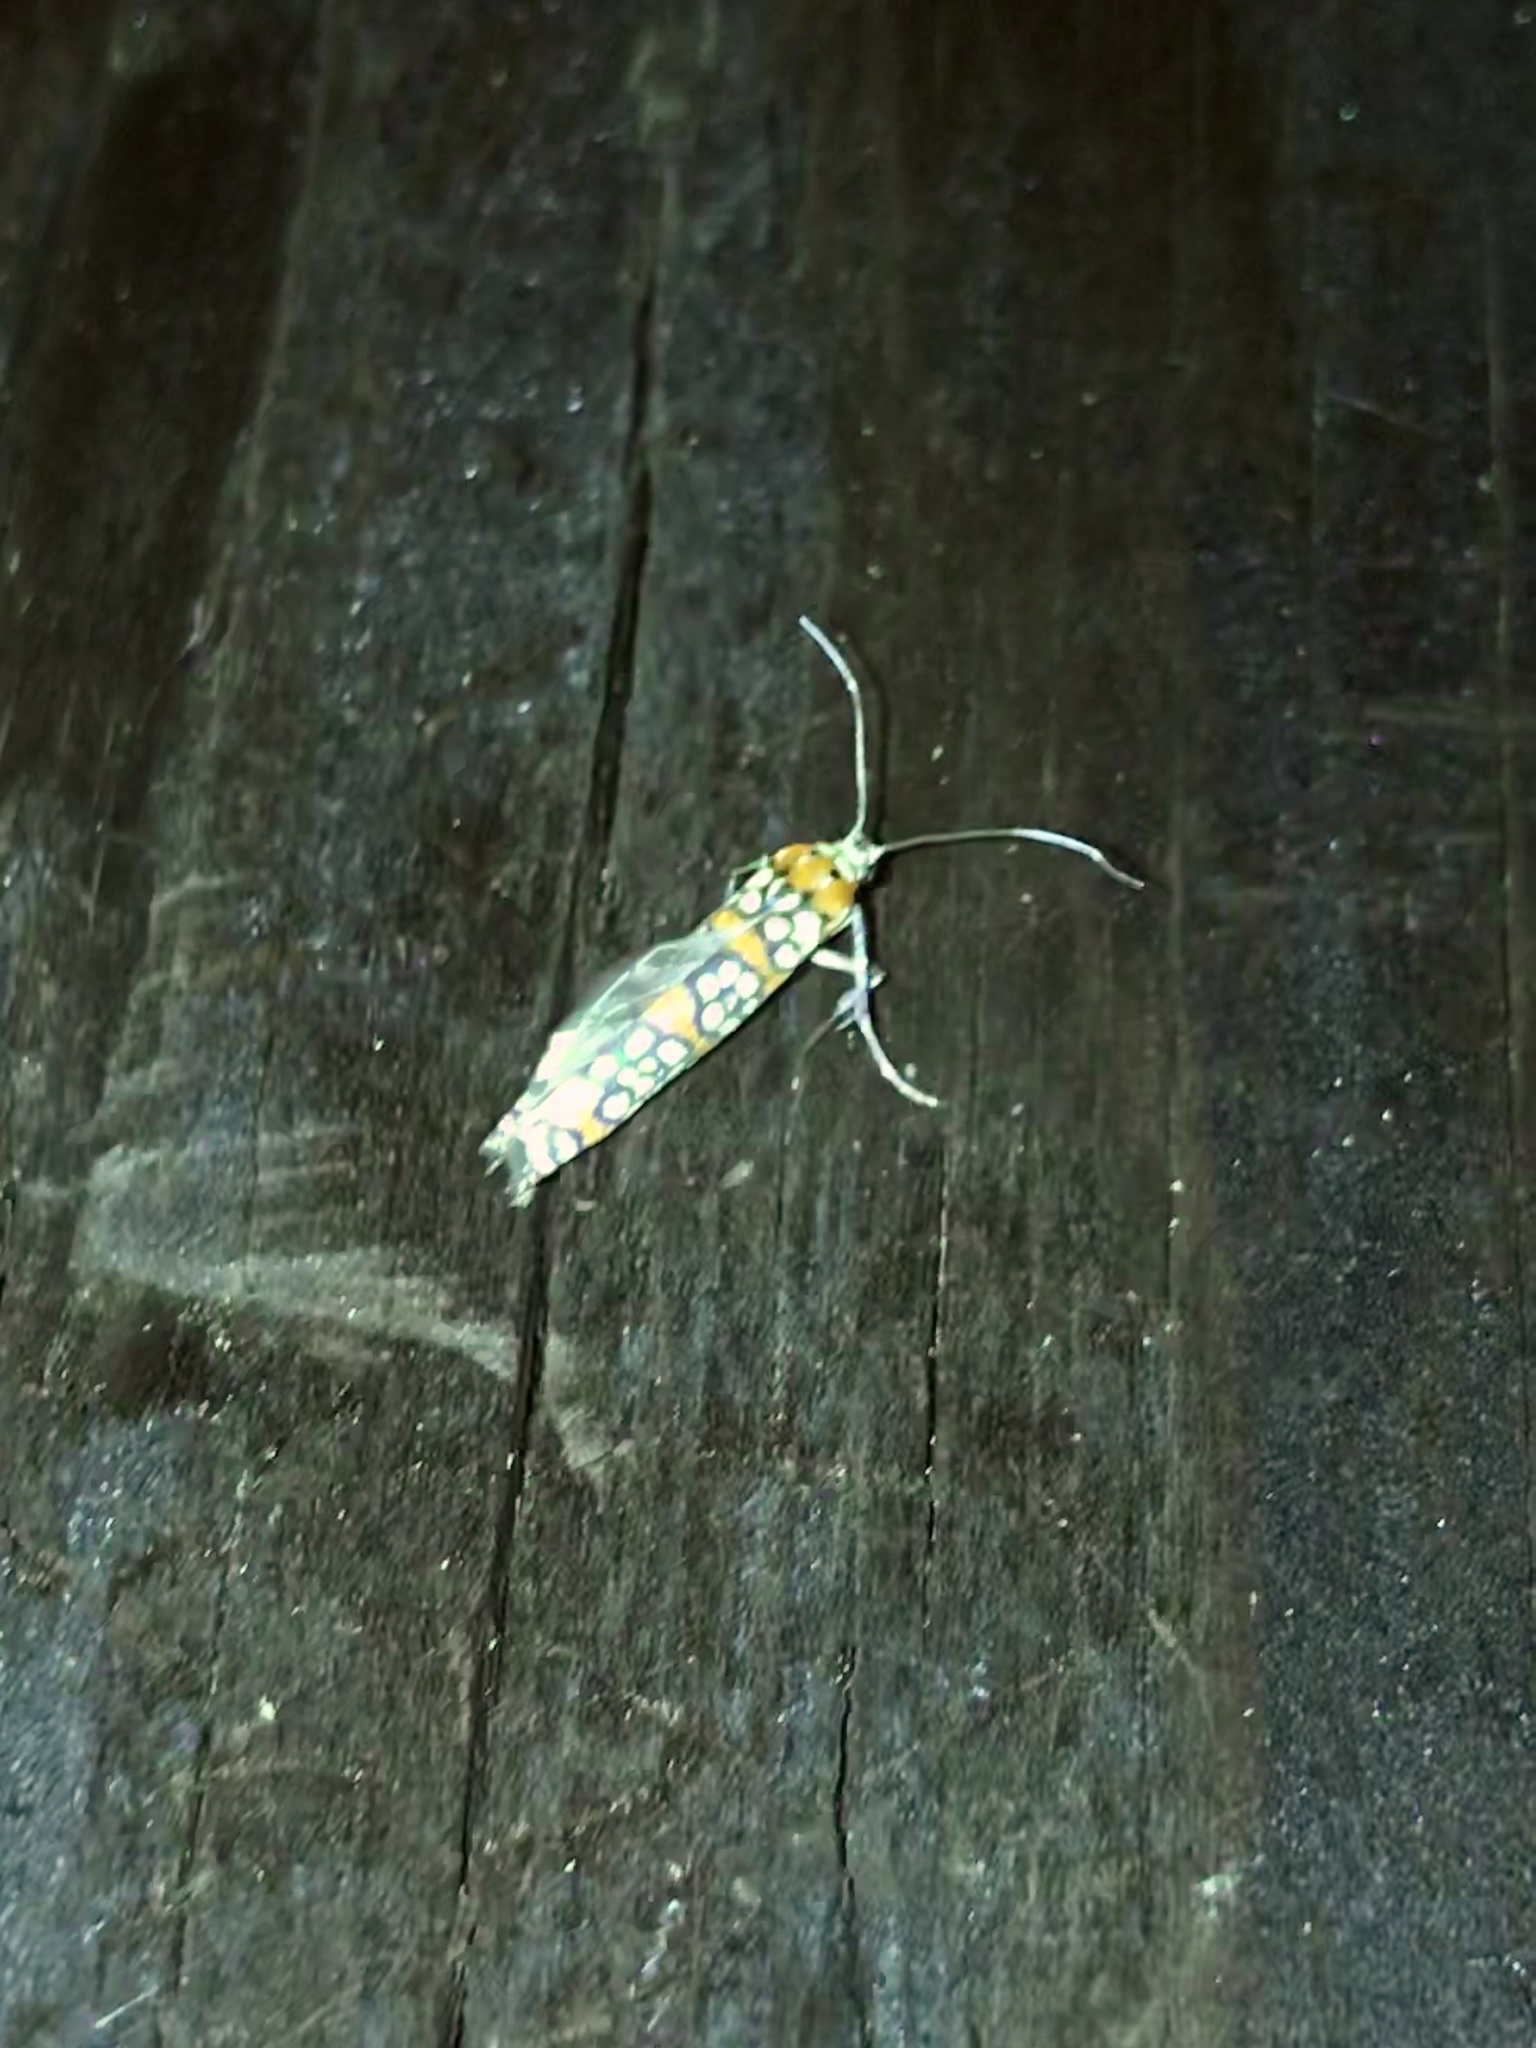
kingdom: Animalia
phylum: Arthropoda
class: Insecta
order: Lepidoptera
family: Attevidae
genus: Atteva
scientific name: Atteva punctella
